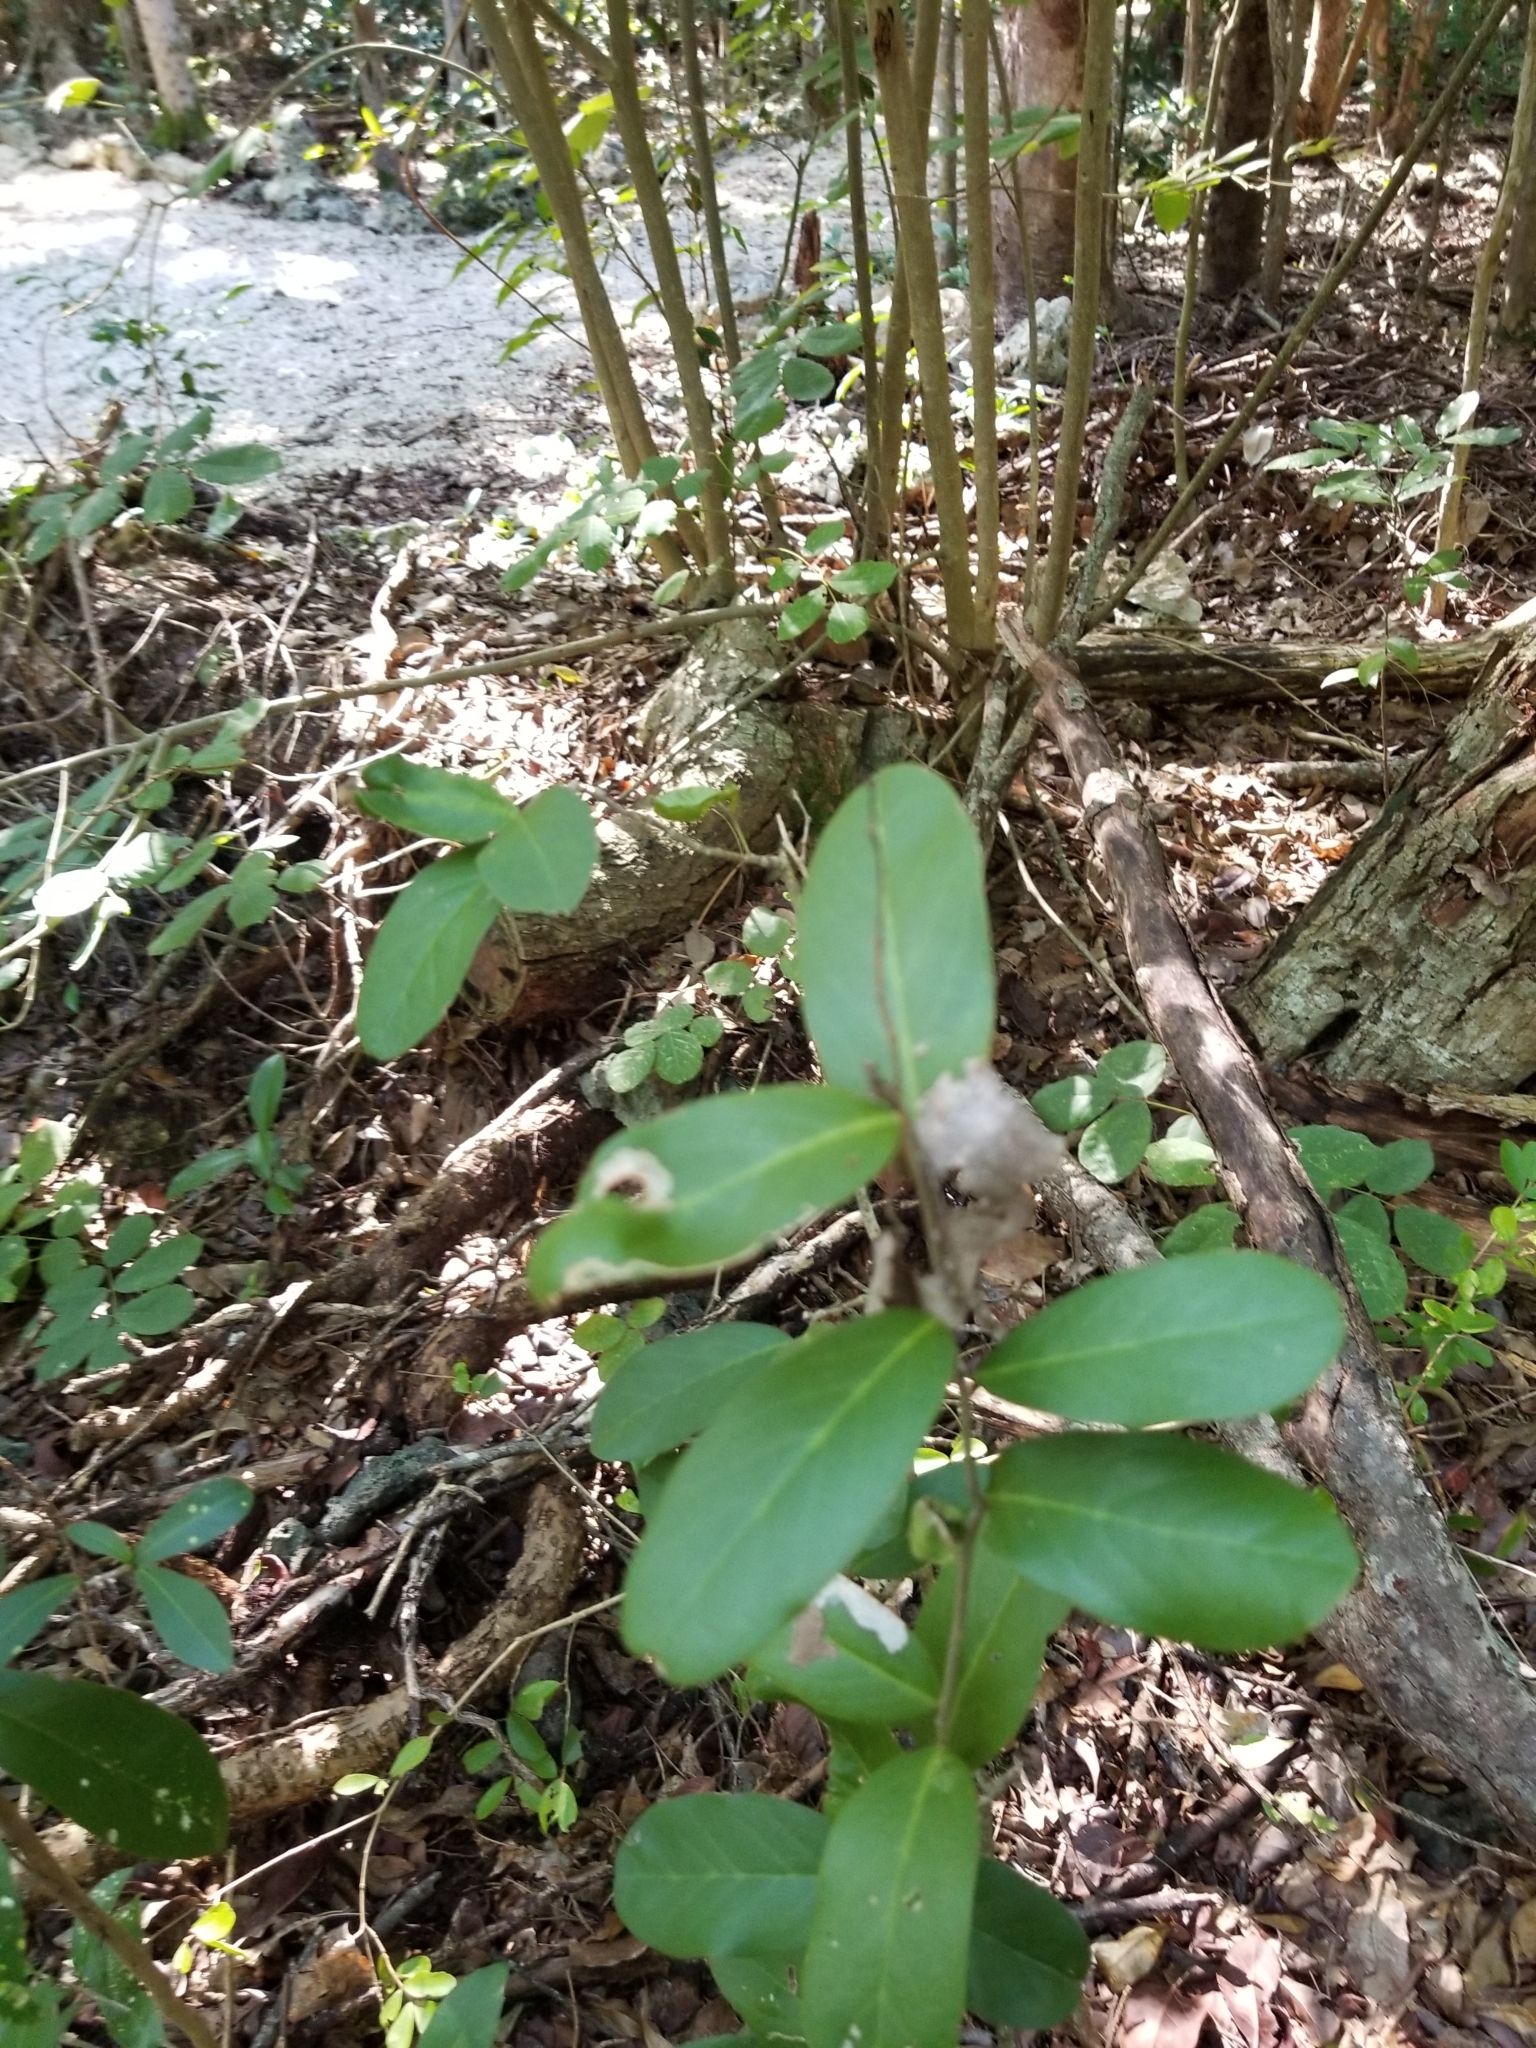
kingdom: Plantae
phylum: Tracheophyta
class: Magnoliopsida
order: Brassicales
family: Capparaceae
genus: Cynophalla
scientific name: Cynophalla flexuosa
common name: Capertree
